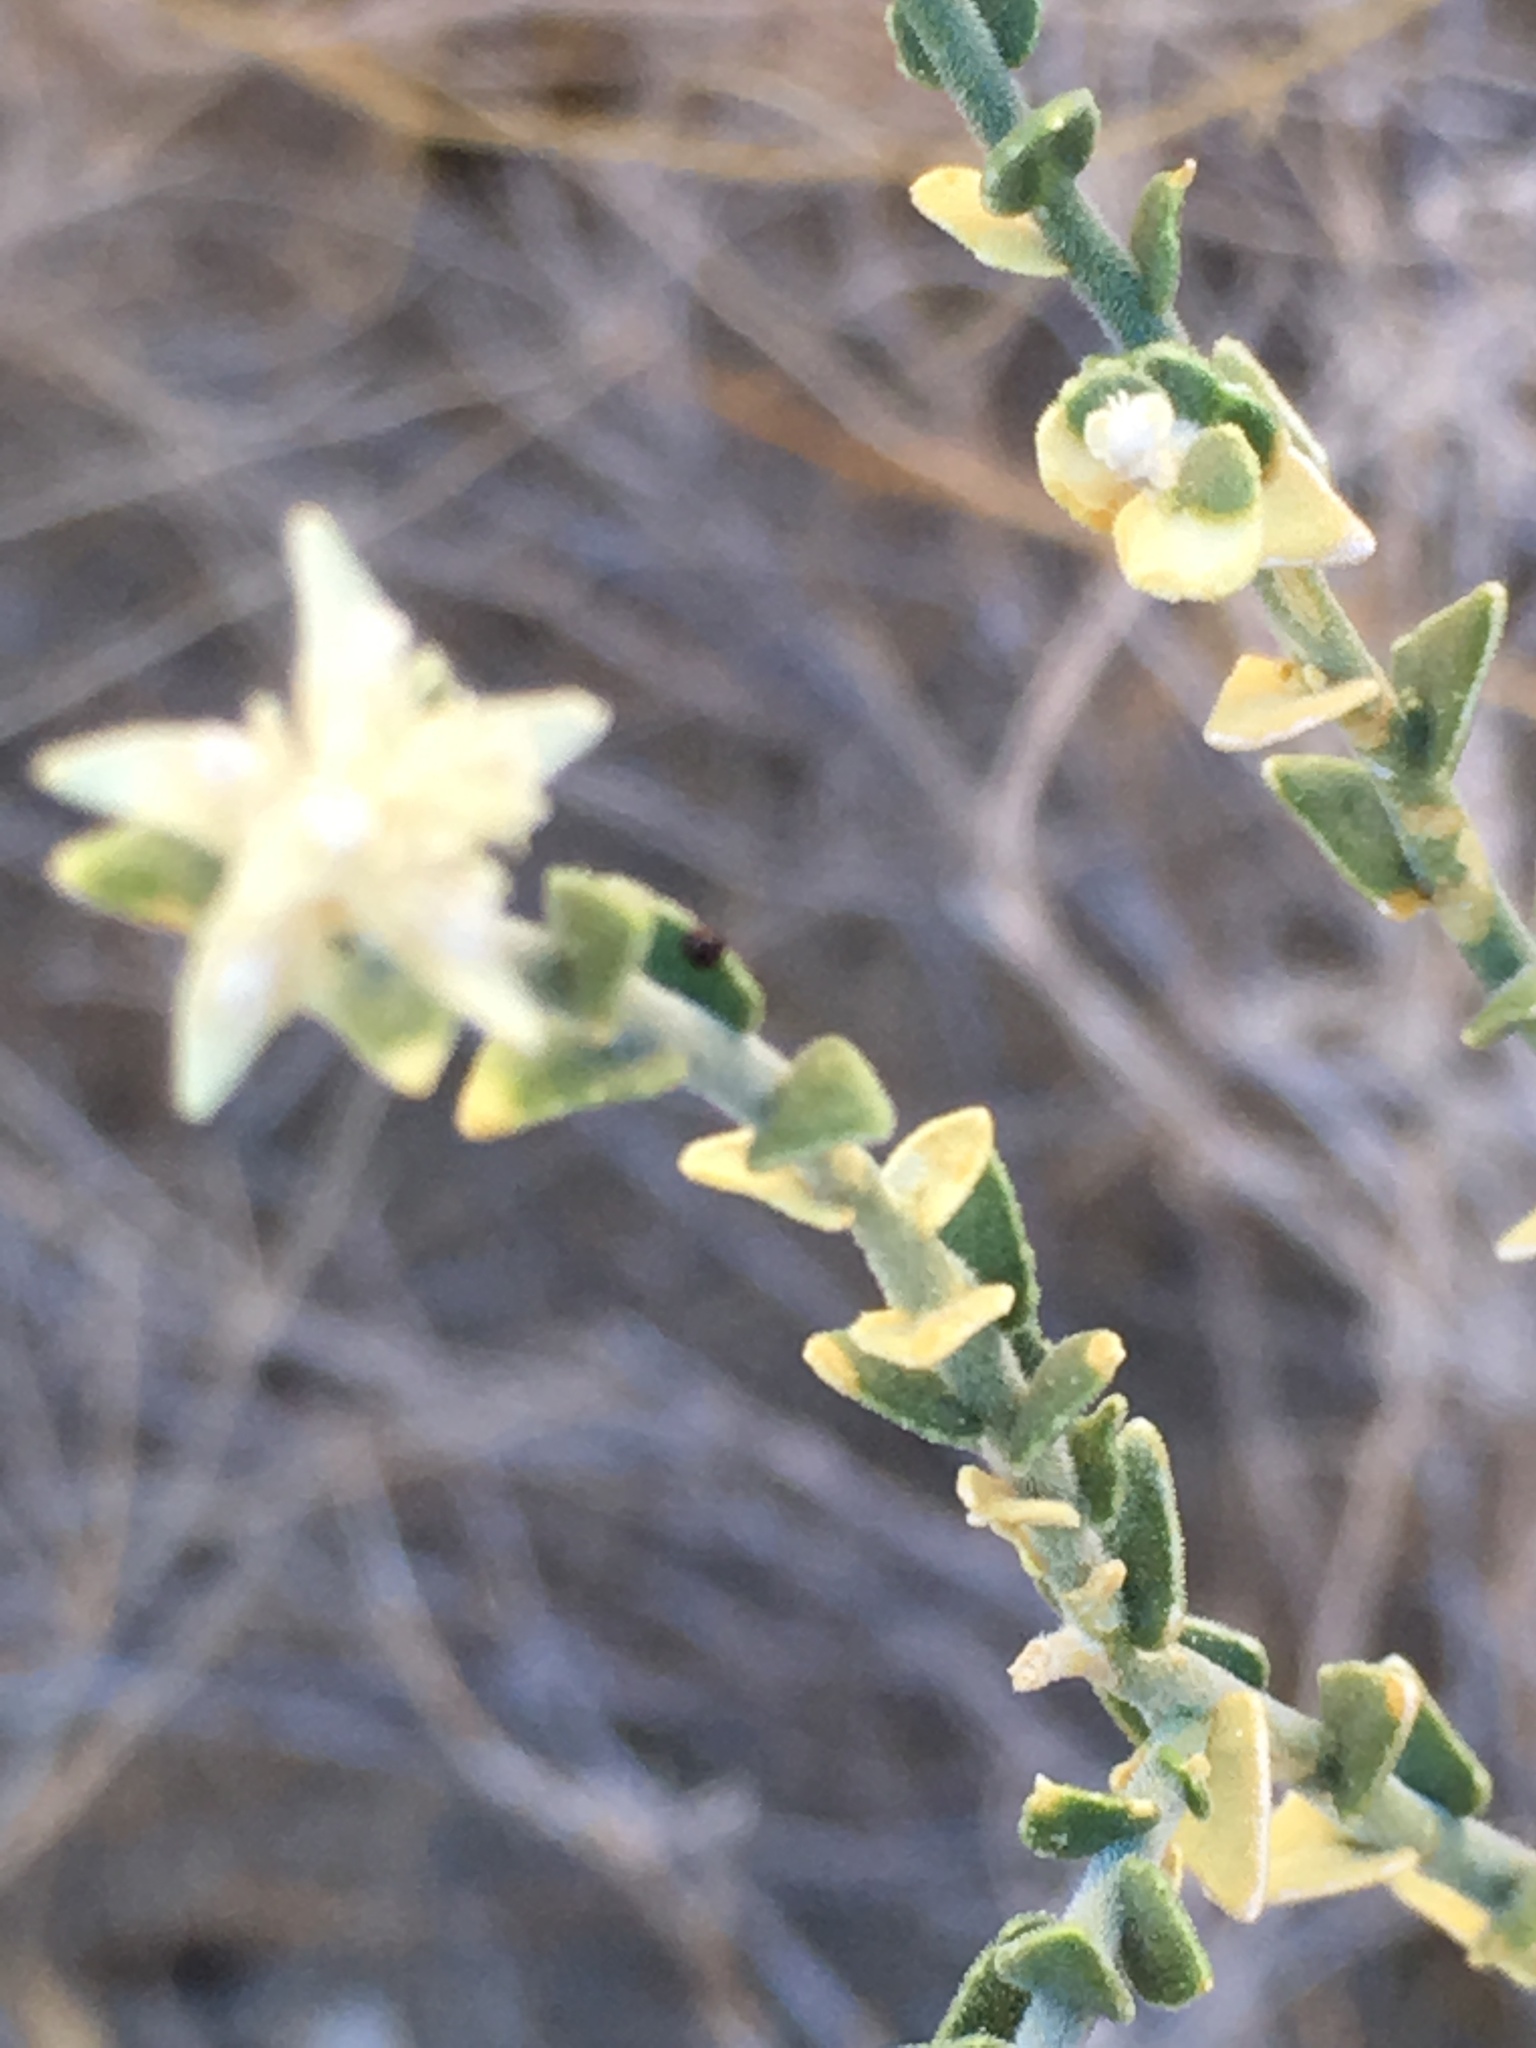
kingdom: Plantae
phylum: Tracheophyta
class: Magnoliopsida
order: Cornales
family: Loasaceae
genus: Petalonyx
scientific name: Petalonyx thurberi
